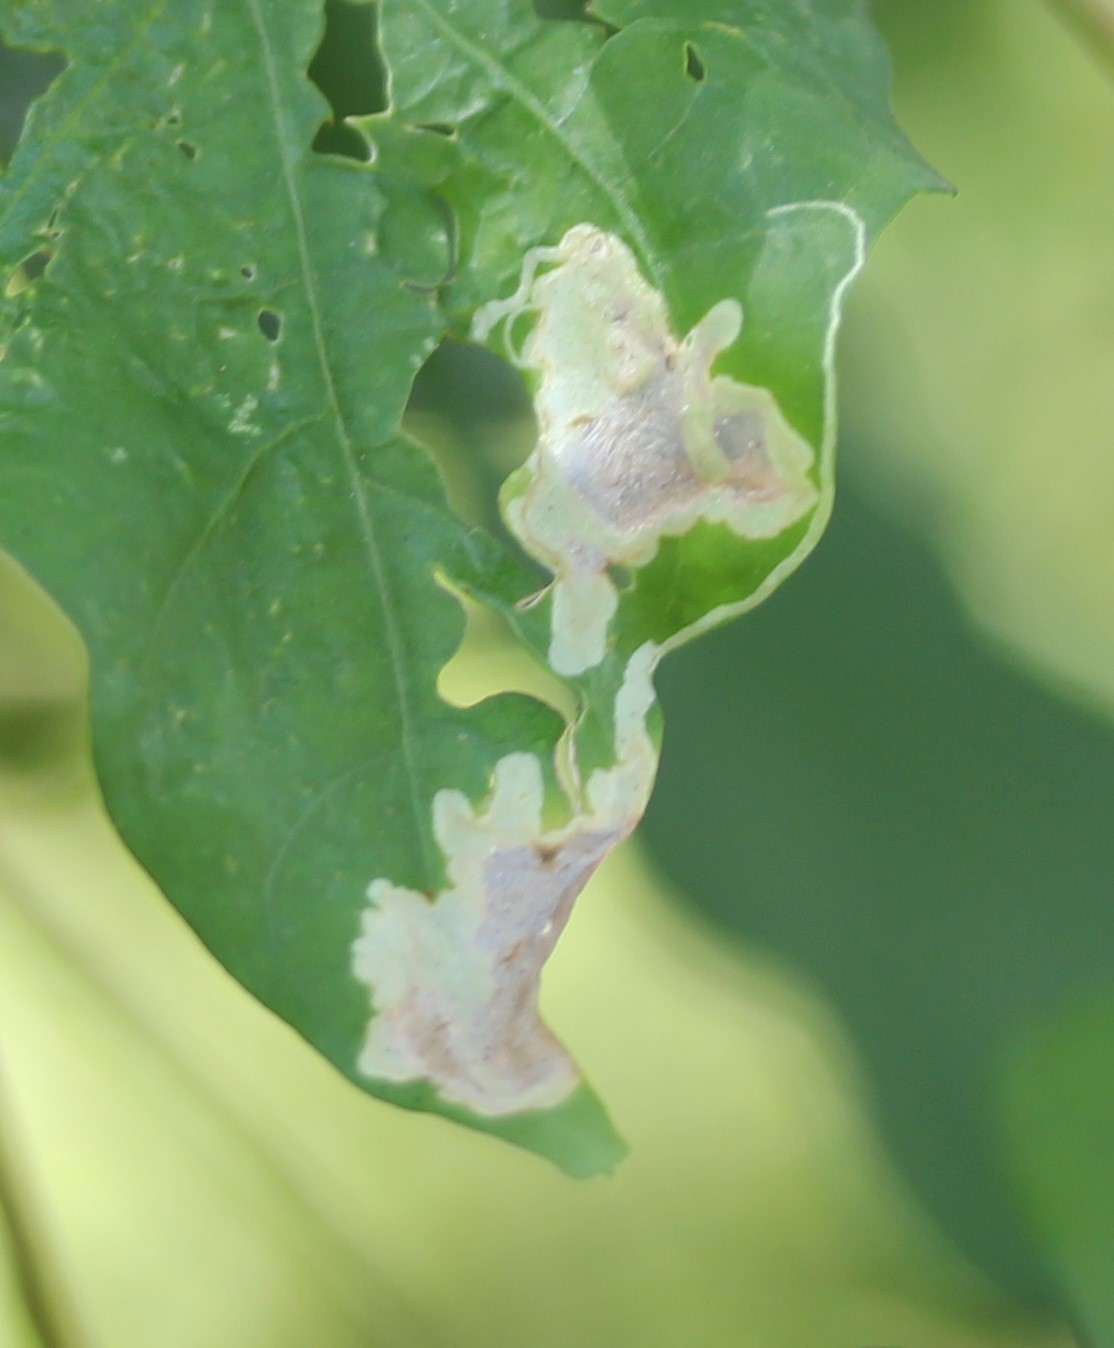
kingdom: Animalia
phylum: Arthropoda
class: Insecta
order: Diptera
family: Agromyzidae
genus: Calycomyza
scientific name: Calycomyza ipomaeae
